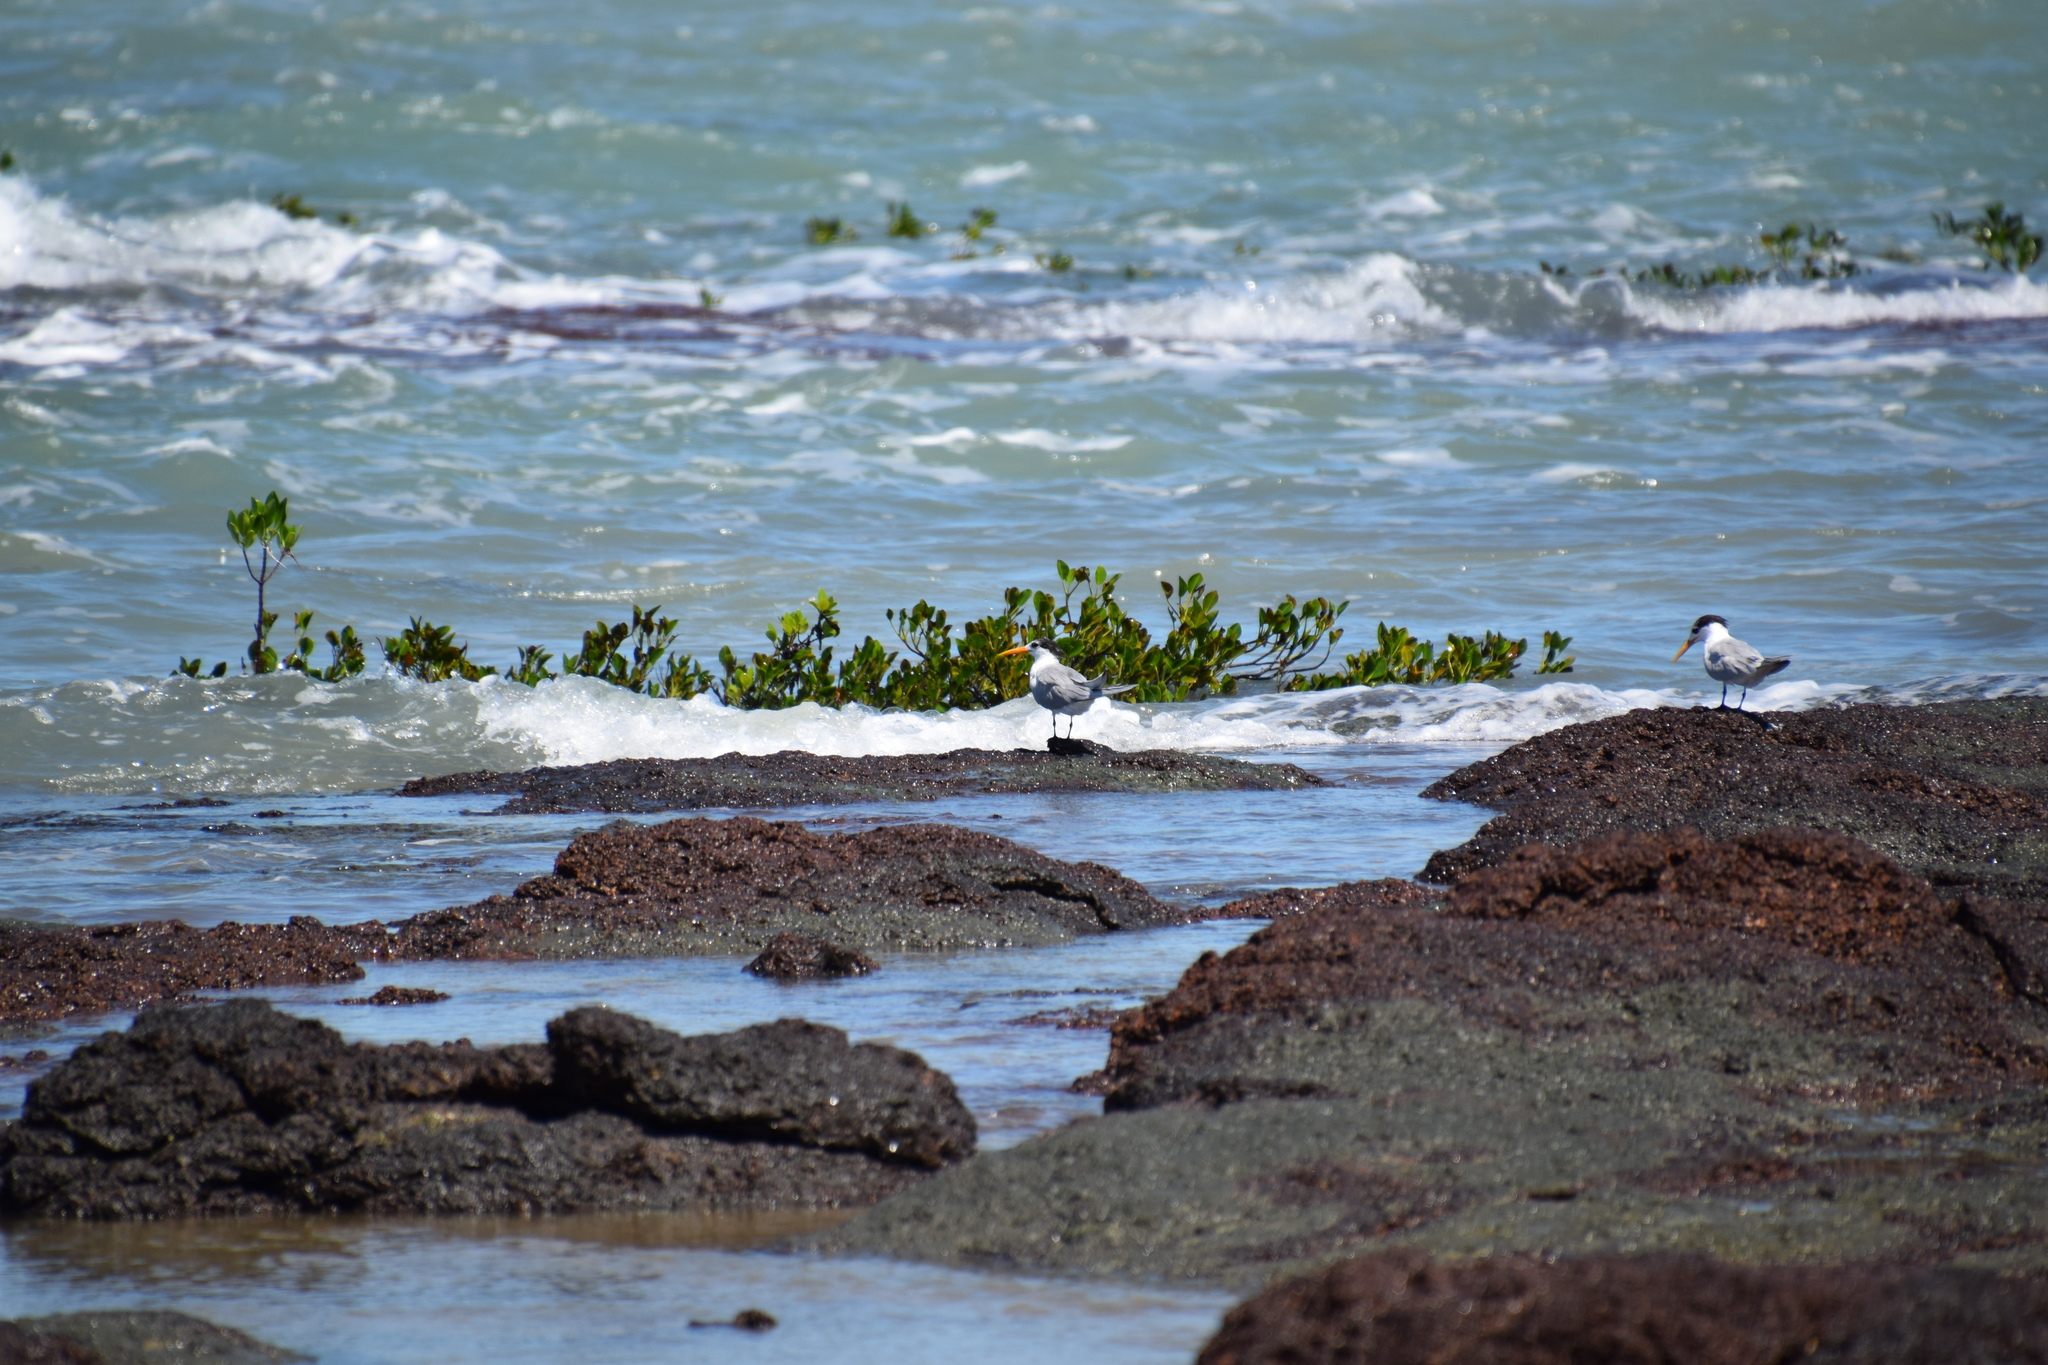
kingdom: Animalia
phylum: Chordata
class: Aves
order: Charadriiformes
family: Laridae
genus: Thalasseus
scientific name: Thalasseus bengalensis
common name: Lesser crested tern
